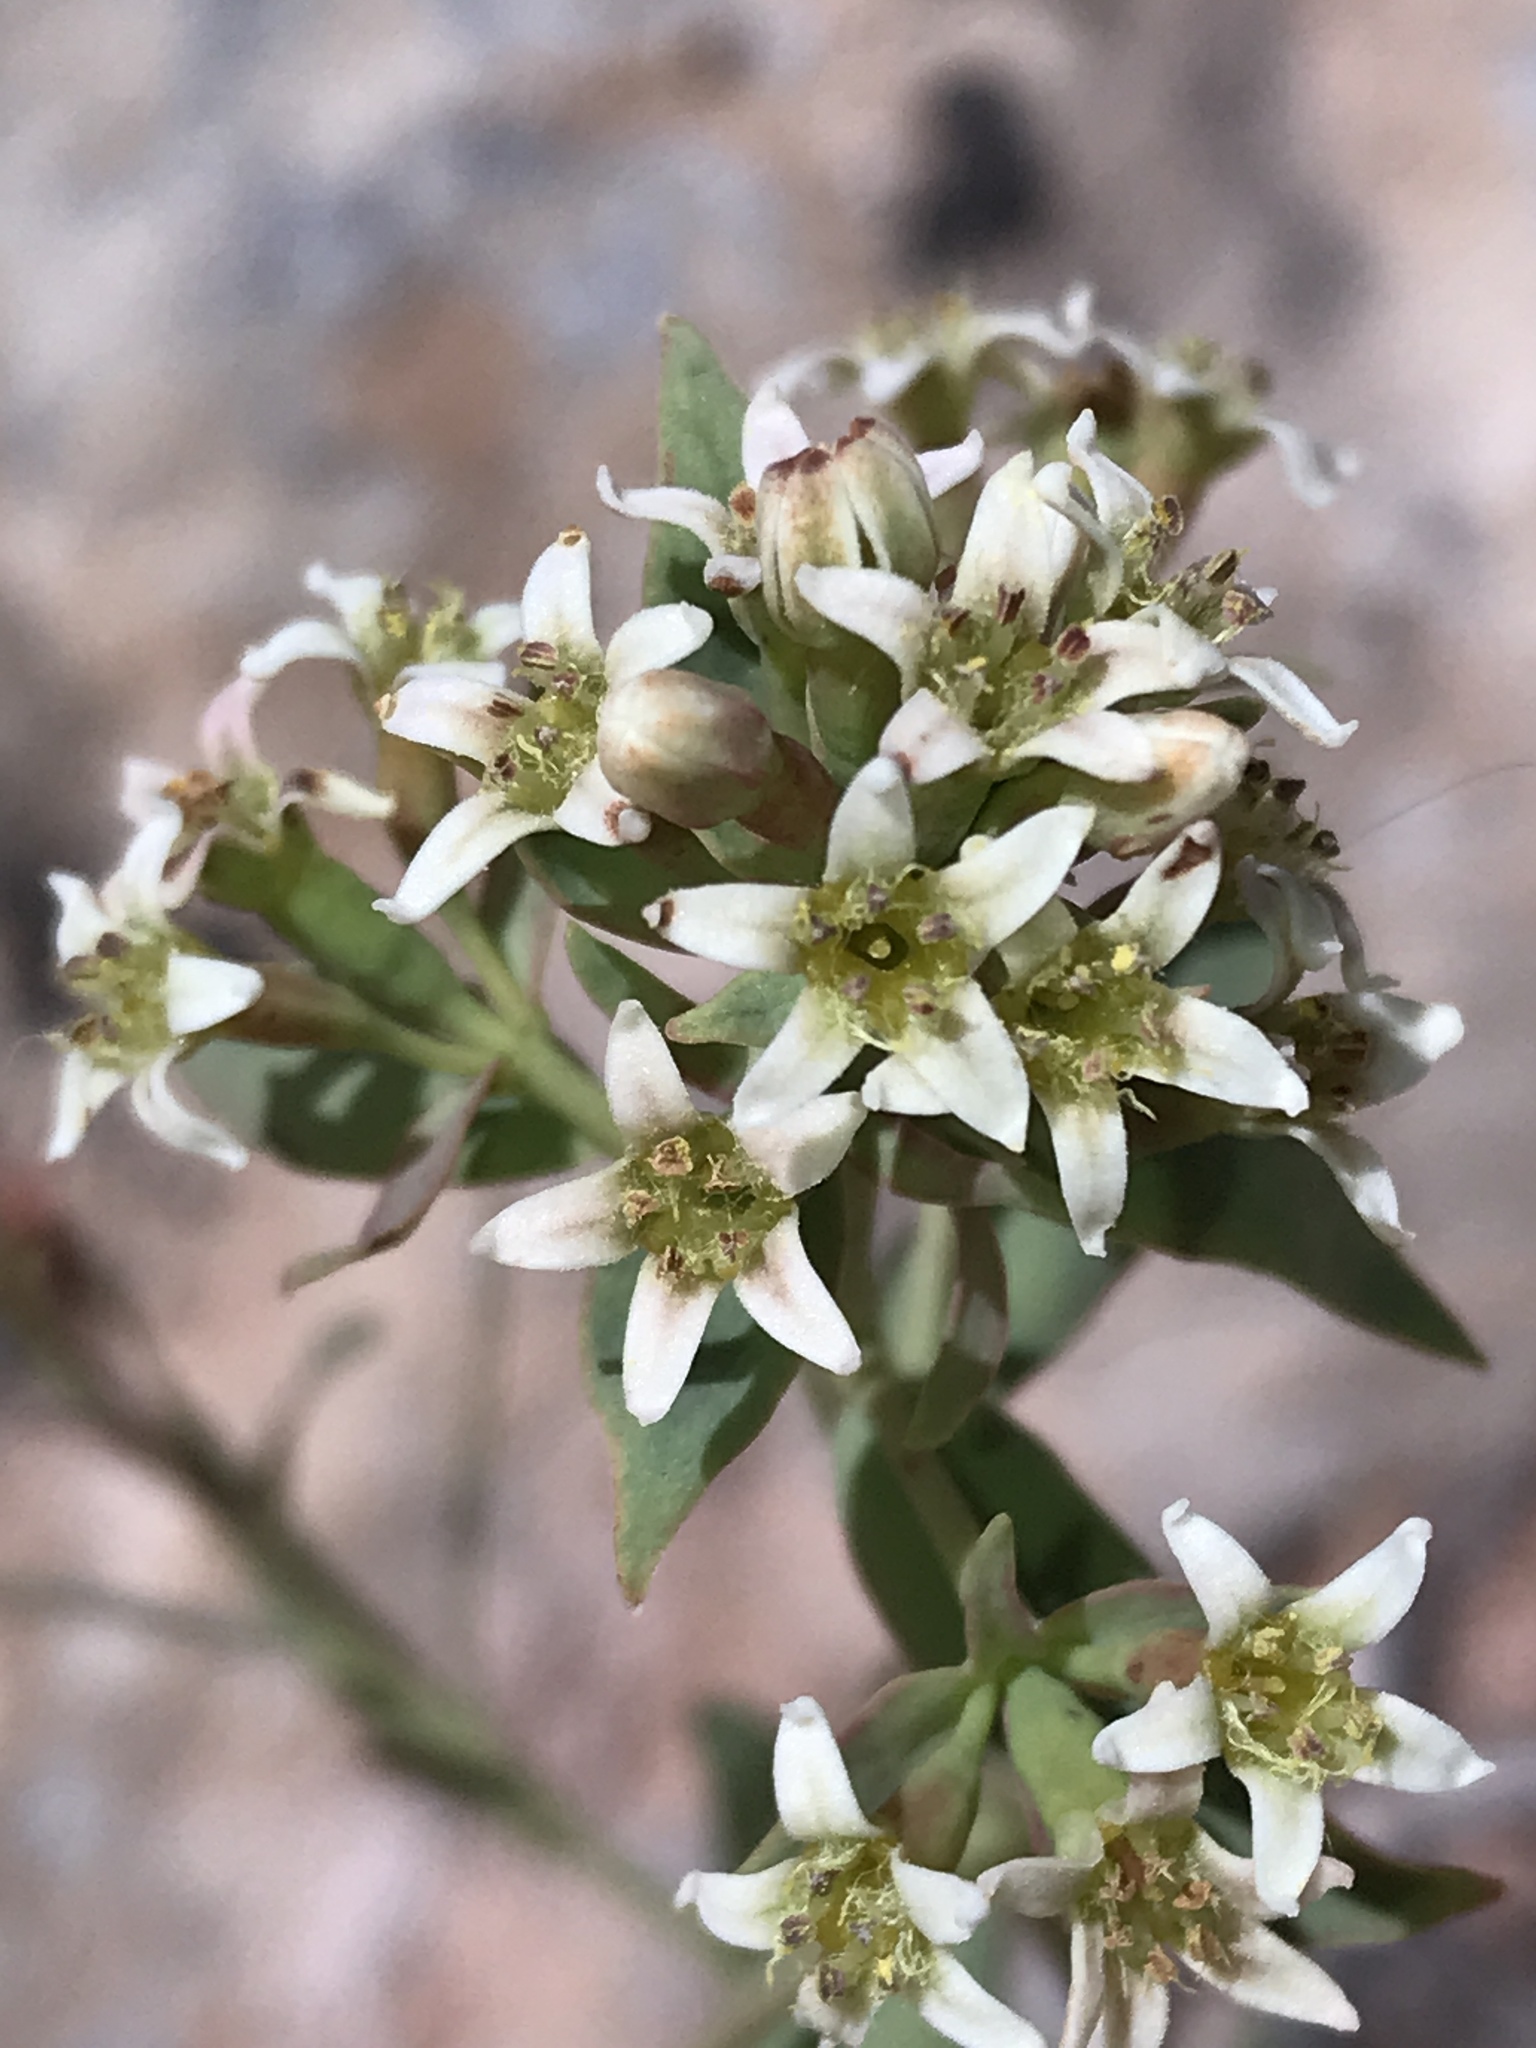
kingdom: Plantae
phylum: Tracheophyta
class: Magnoliopsida
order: Santalales
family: Comandraceae
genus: Comandra
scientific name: Comandra umbellata
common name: Bastard toadflax
